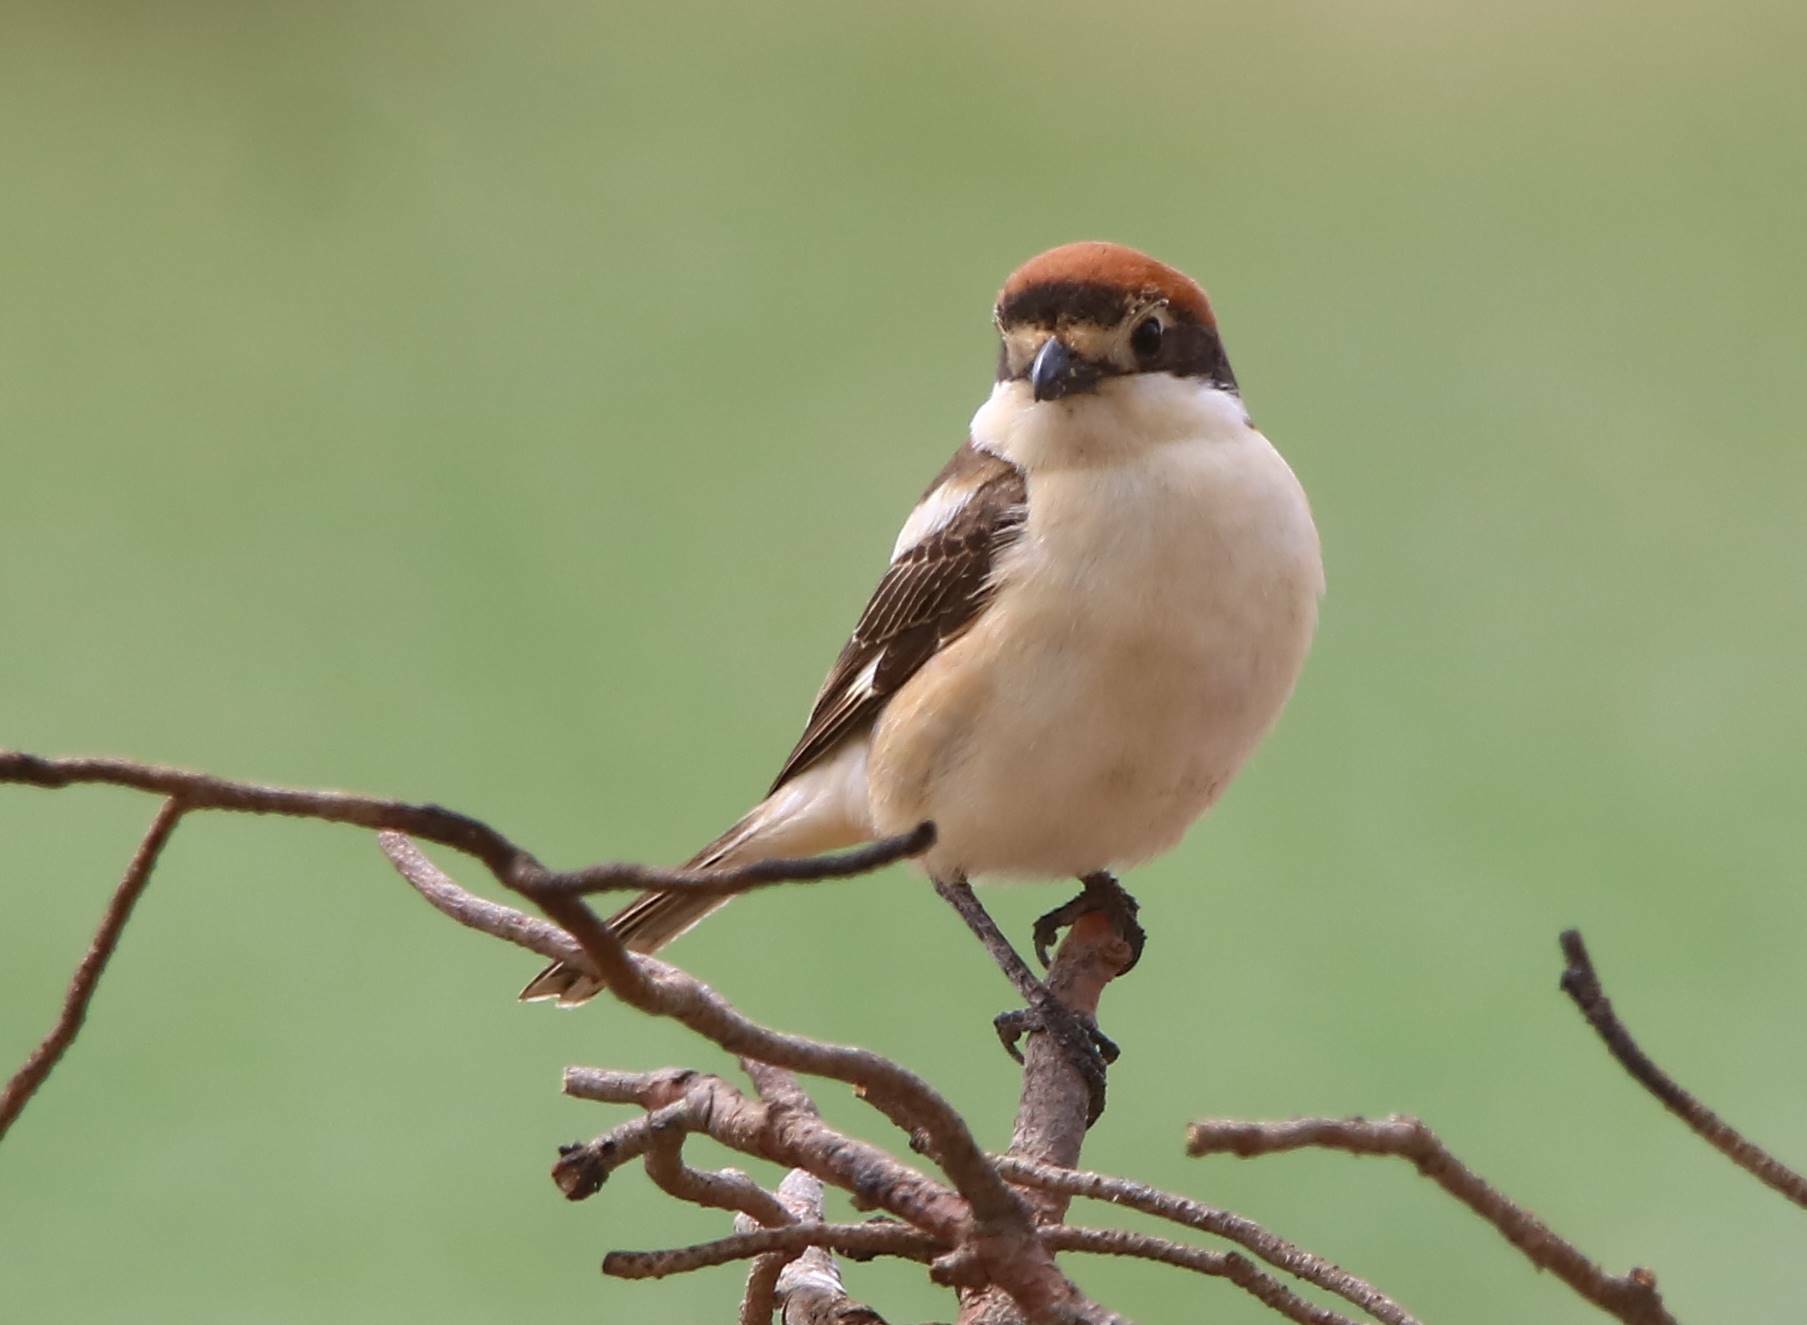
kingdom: Animalia
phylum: Chordata
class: Aves
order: Passeriformes
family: Laniidae
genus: Lanius
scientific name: Lanius senator
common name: Woodchat shrike
